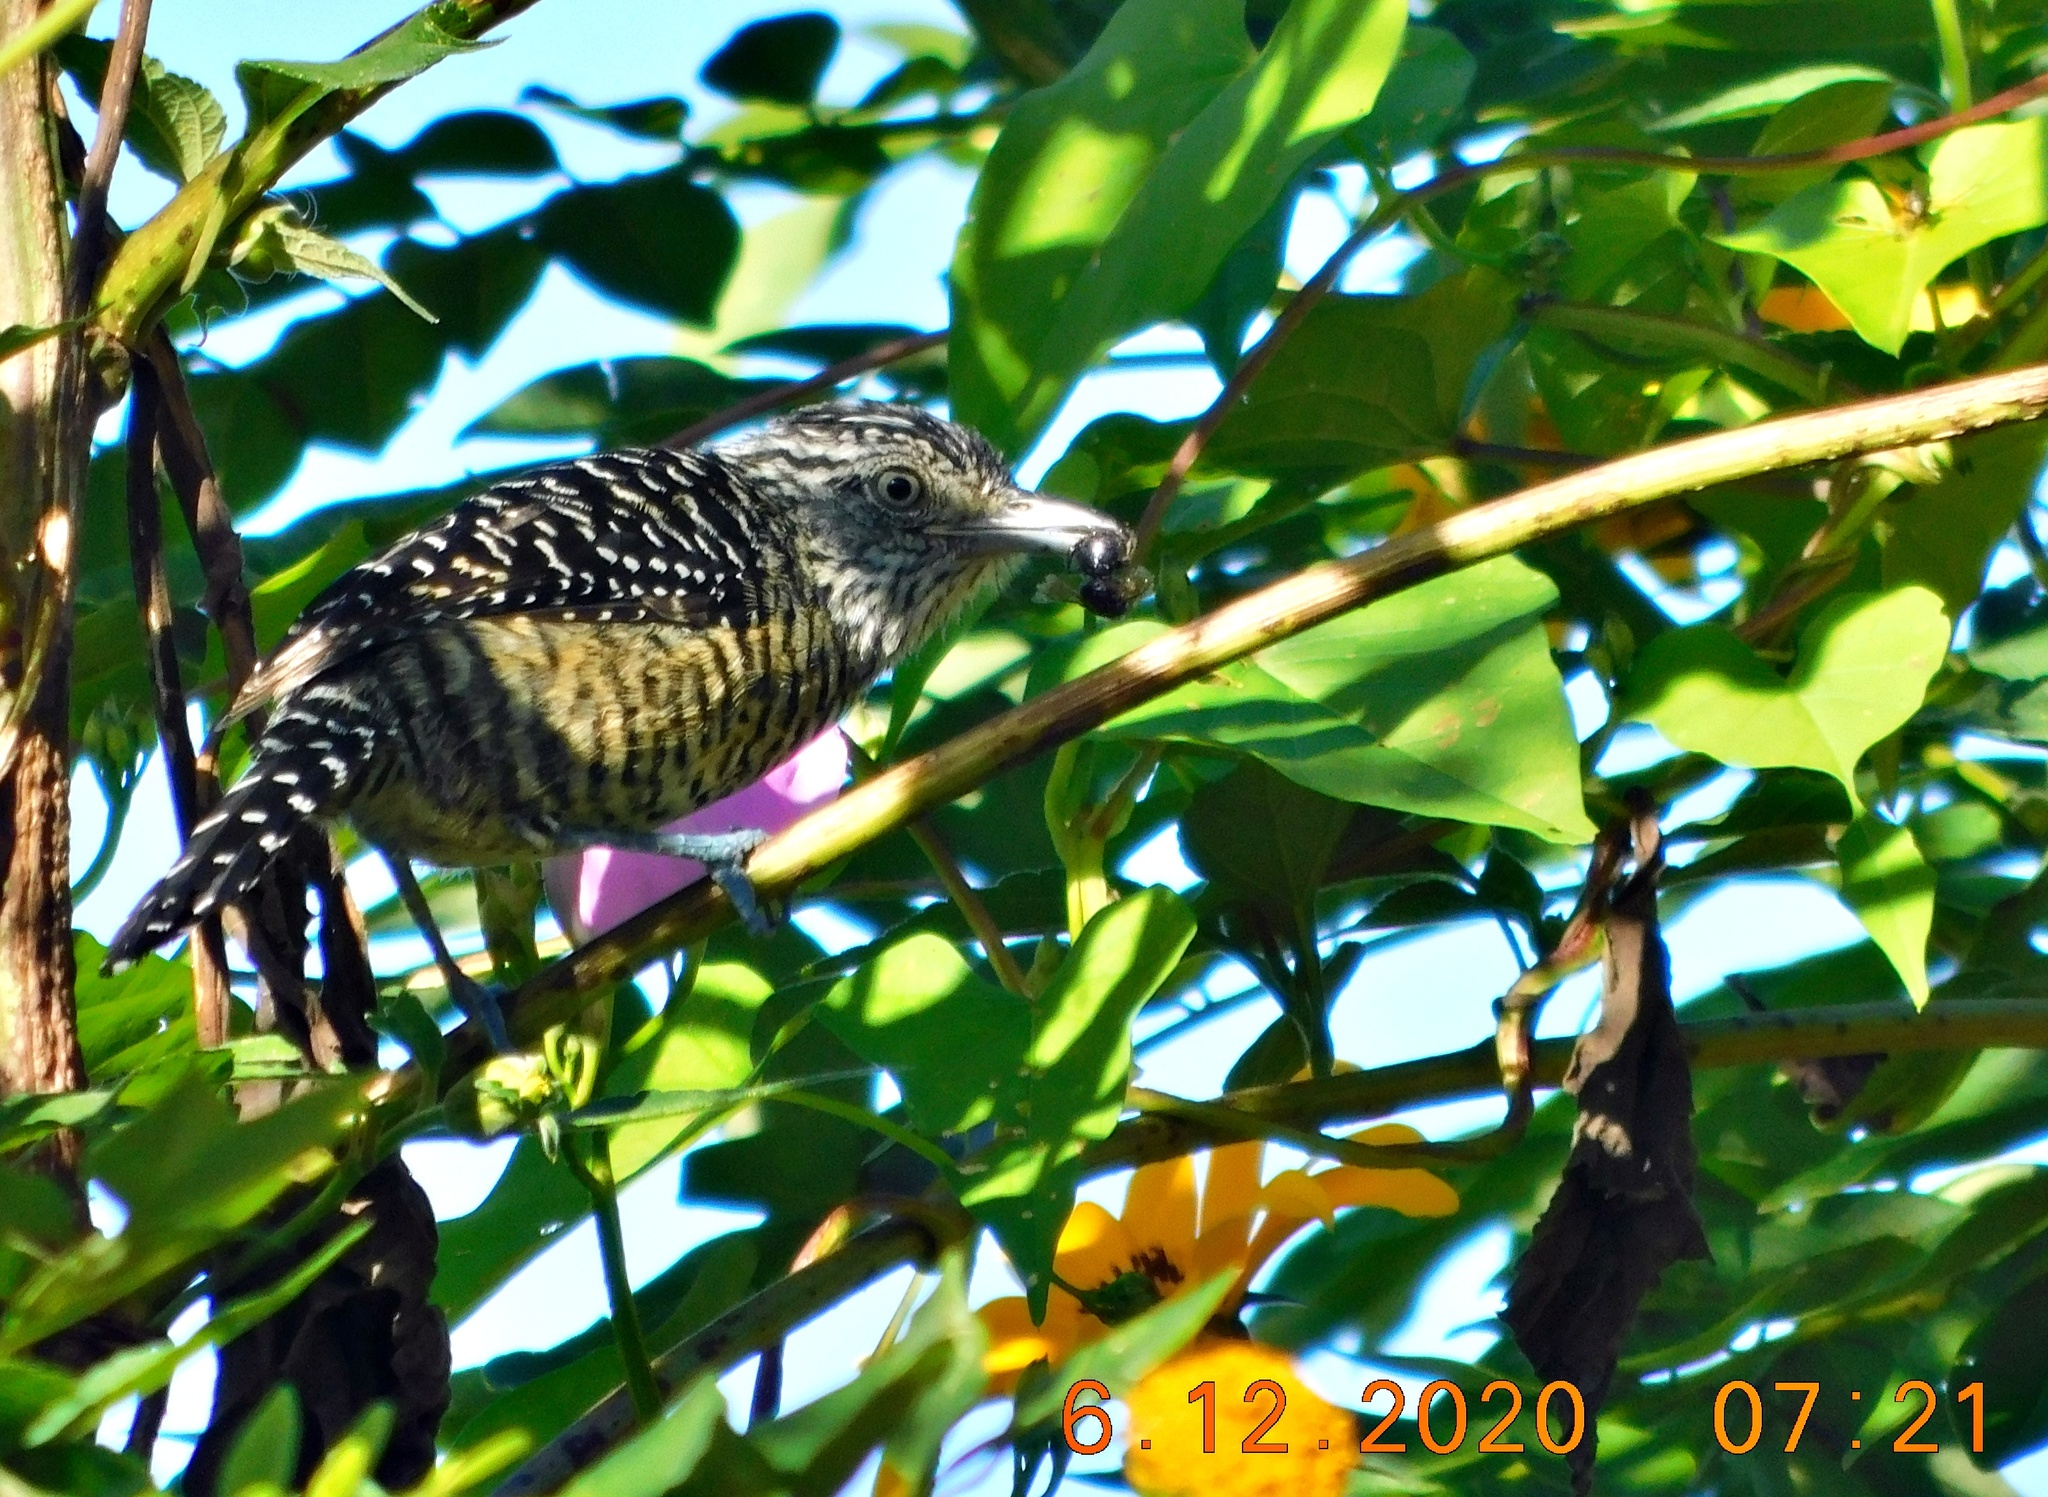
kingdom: Animalia
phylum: Chordata
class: Aves
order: Passeriformes
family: Thamnophilidae
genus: Thamnophilus
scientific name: Thamnophilus doliatus
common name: Barred antshrike
